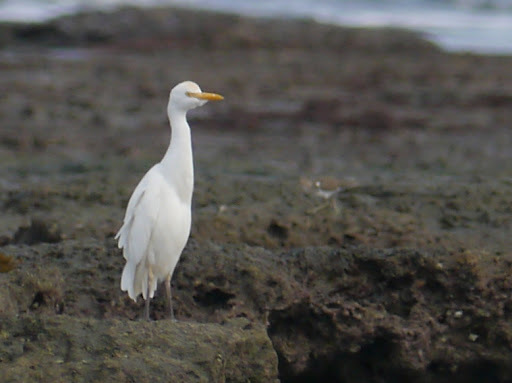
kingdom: Animalia
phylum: Chordata
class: Aves
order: Pelecaniformes
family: Ardeidae
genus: Bubulcus
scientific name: Bubulcus ibis
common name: Cattle egret
